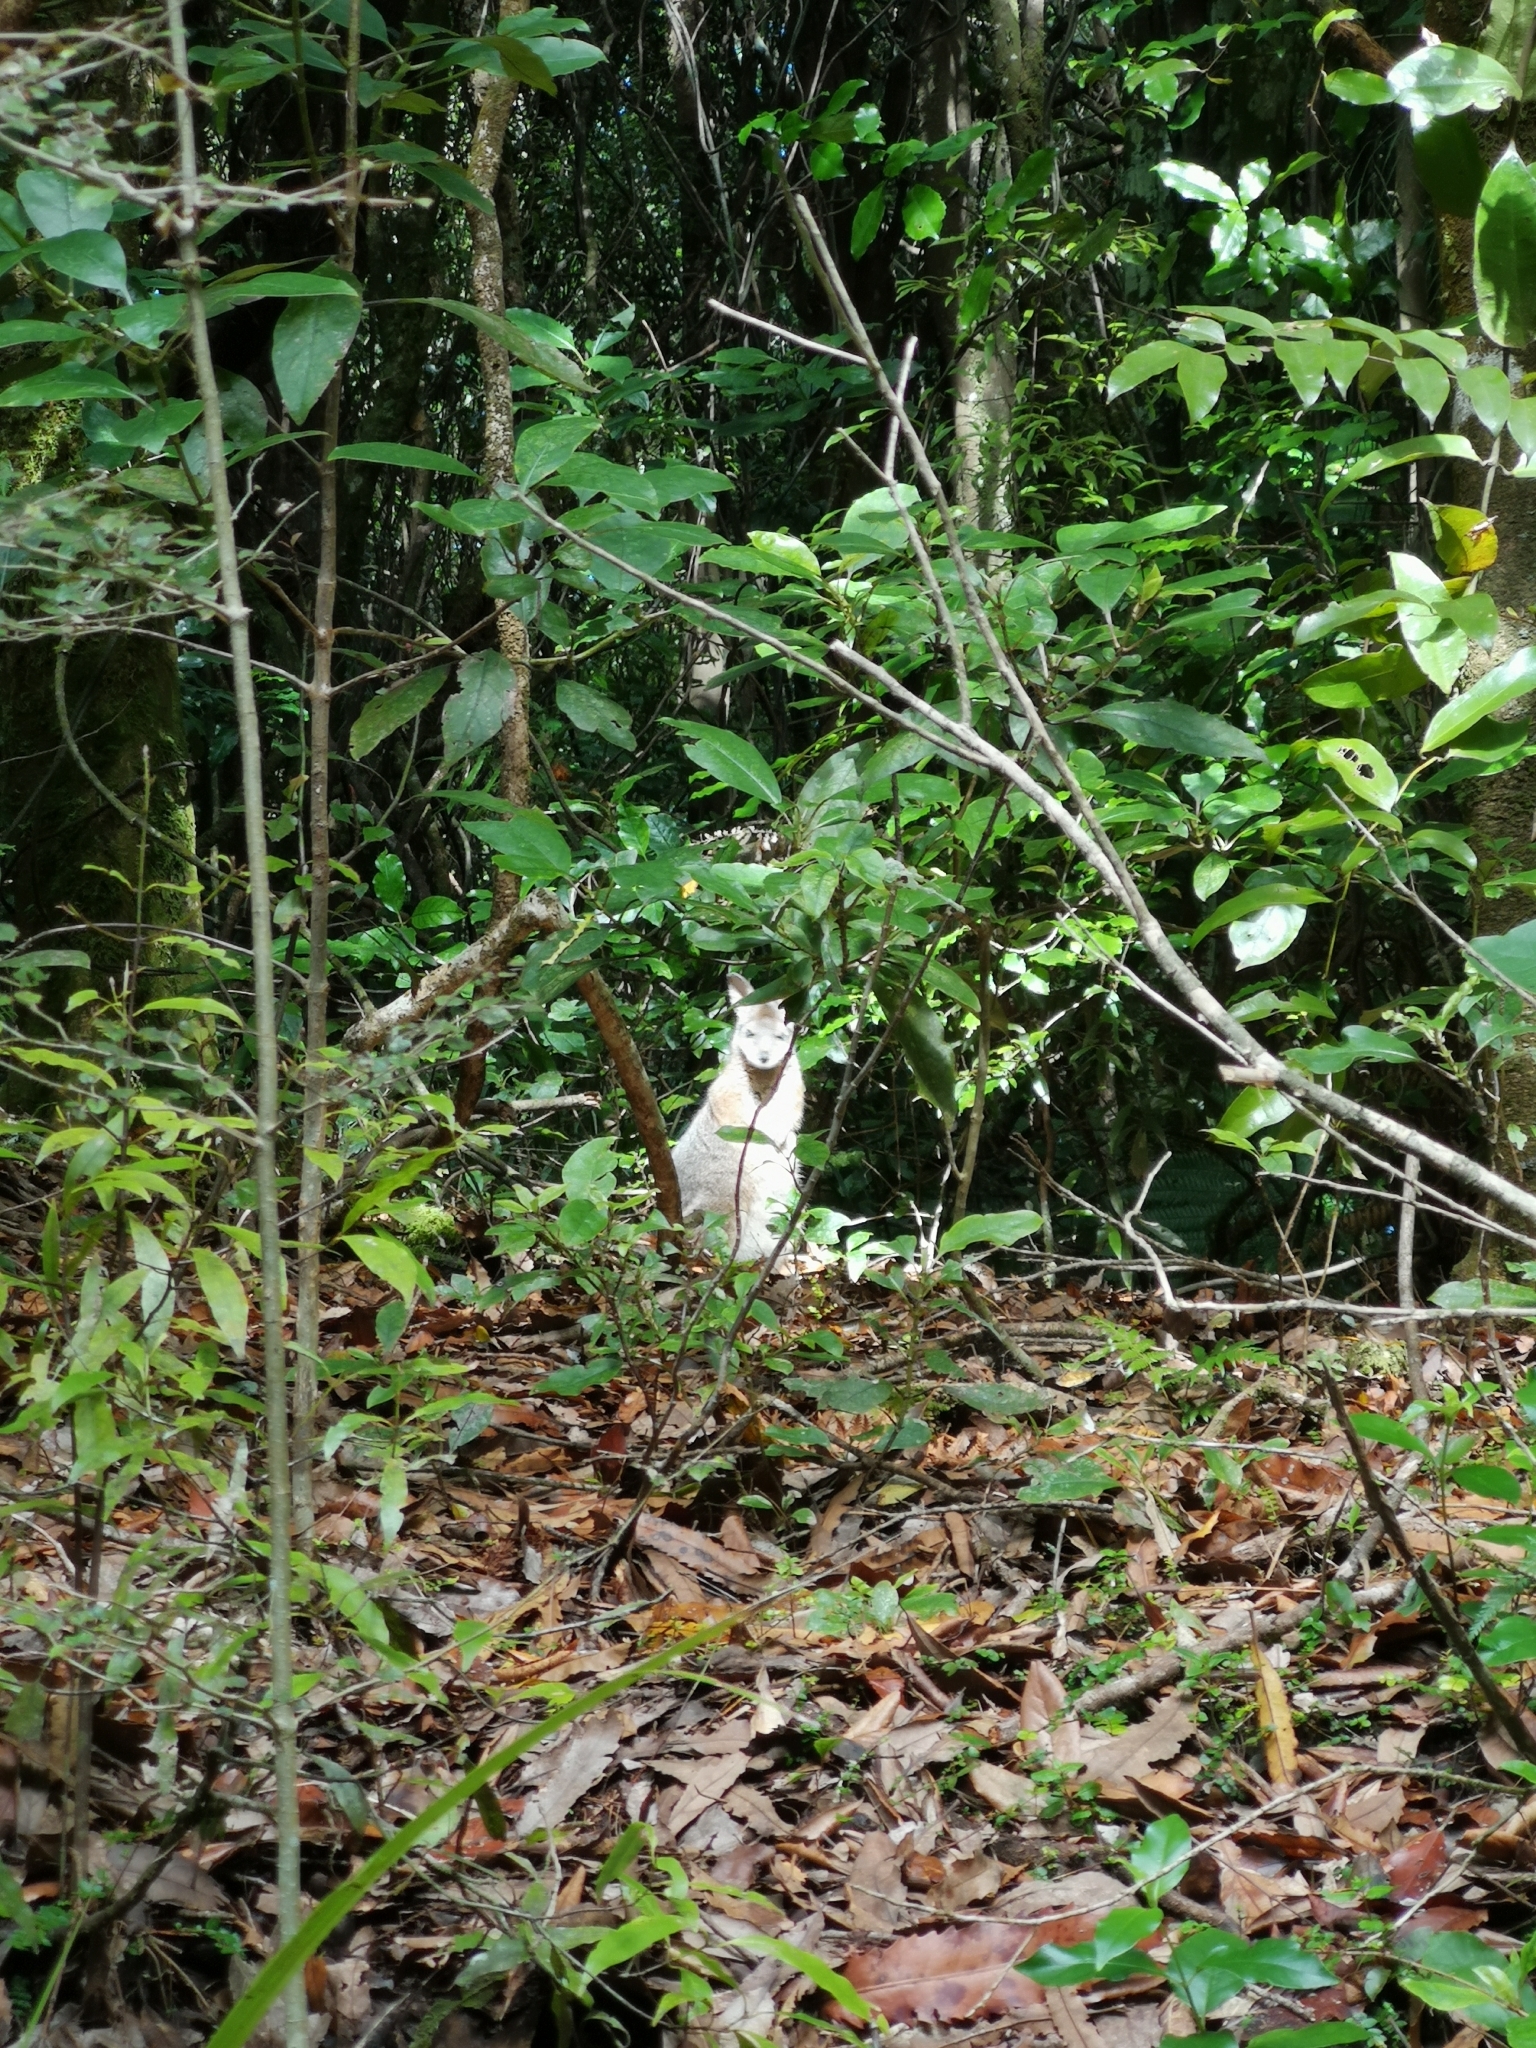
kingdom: Animalia
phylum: Chordata
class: Mammalia
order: Diprotodontia
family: Macropodidae
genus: Macropus
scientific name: Macropus eugenii
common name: Tammar wallaby
